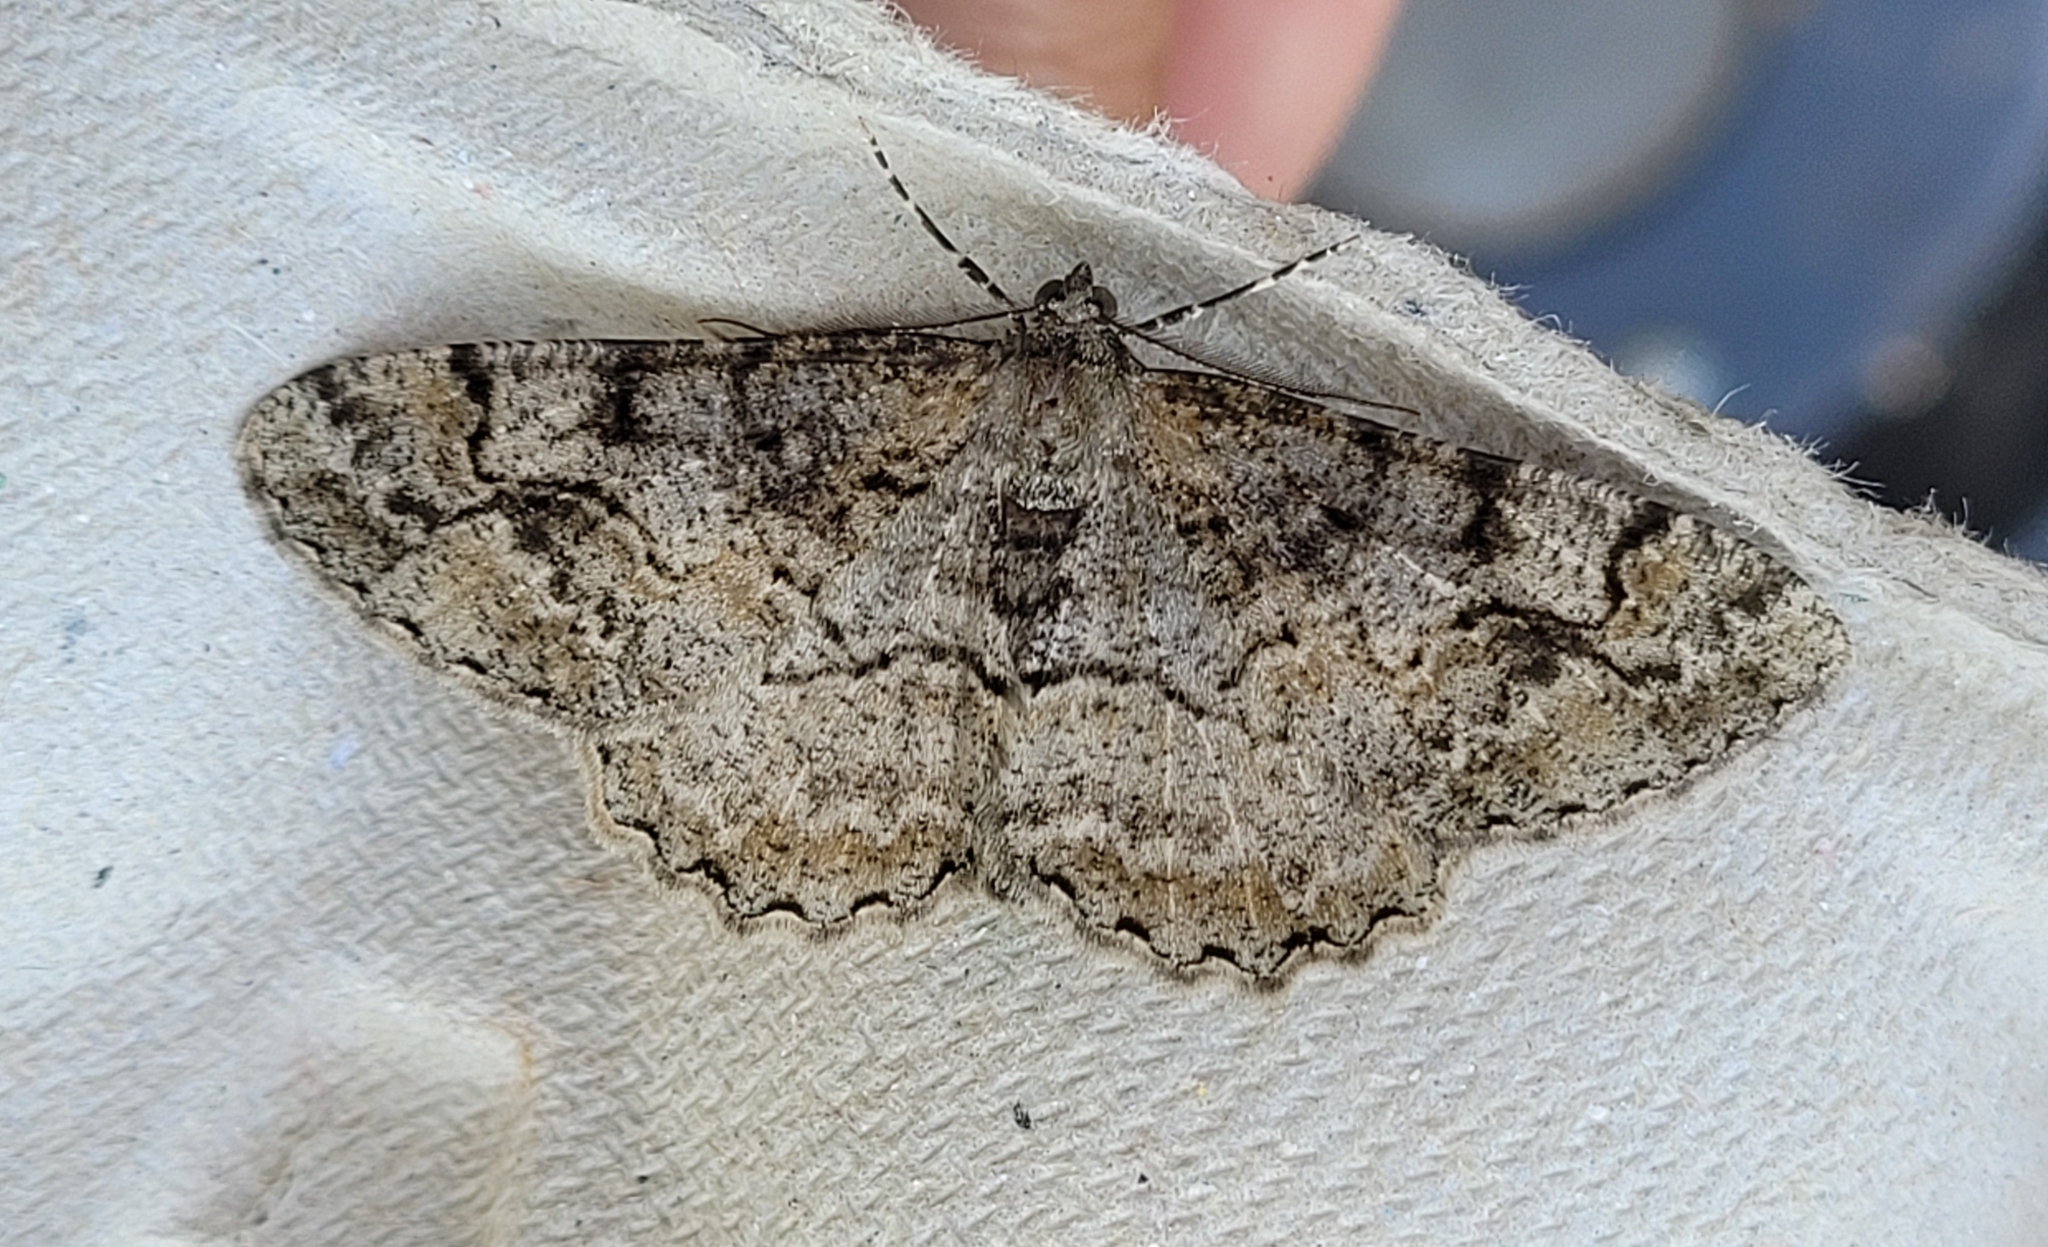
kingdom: Animalia
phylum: Arthropoda
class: Insecta
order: Lepidoptera
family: Geometridae
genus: Alcis
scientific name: Alcis repandata
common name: Mottled beauty
